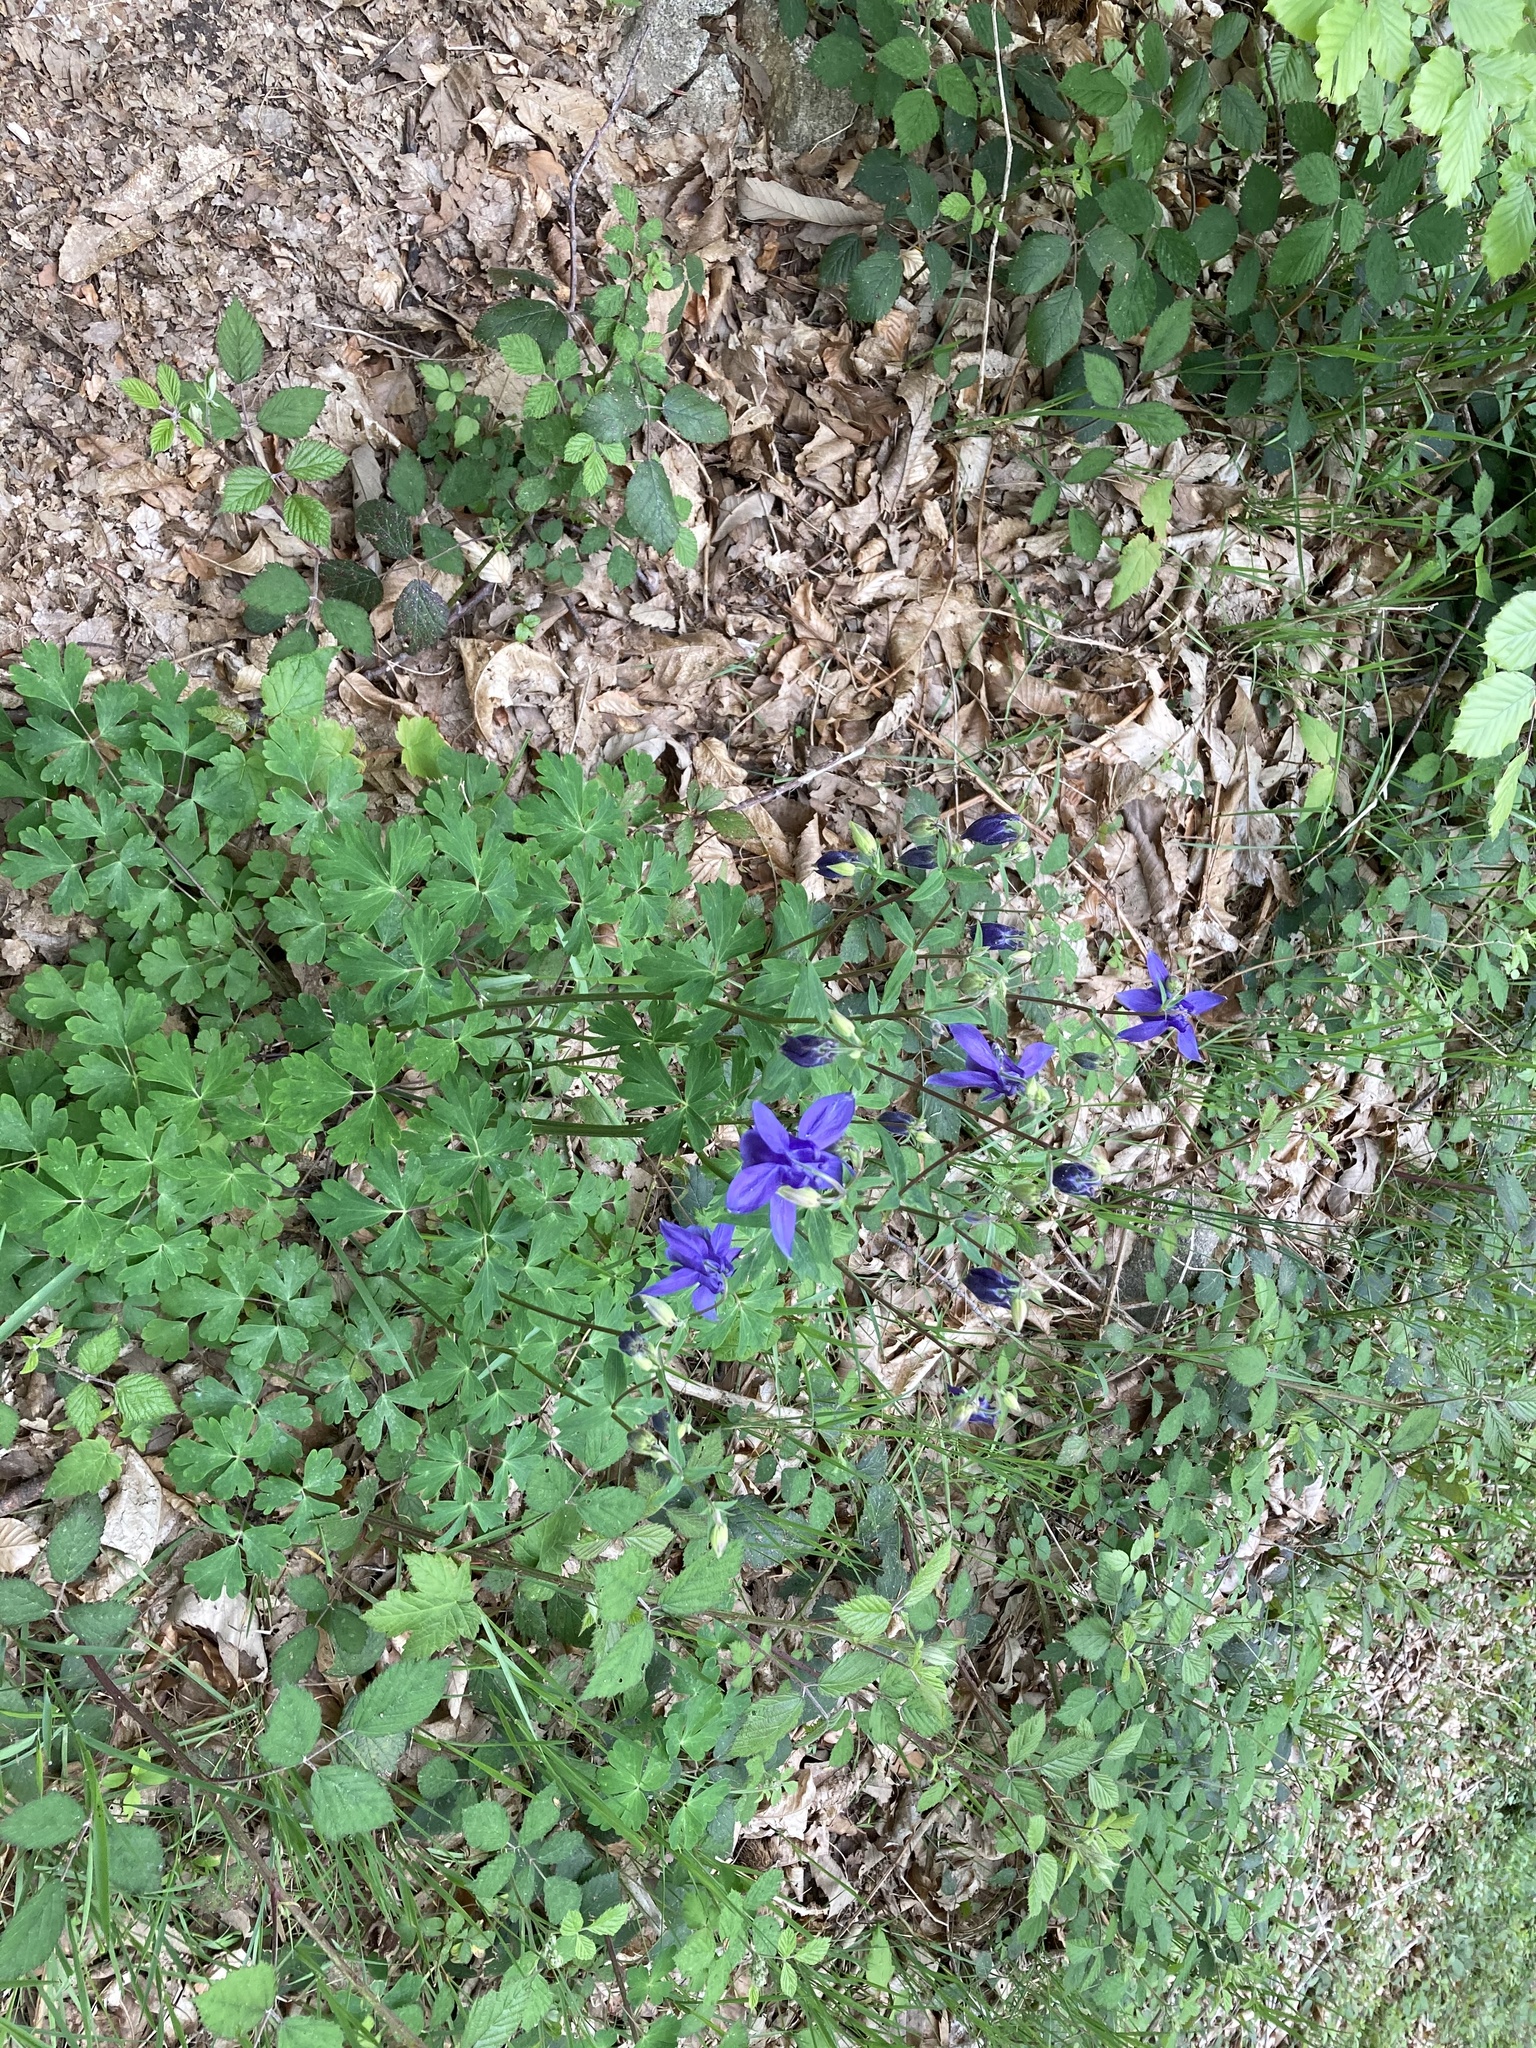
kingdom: Plantae
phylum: Tracheophyta
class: Magnoliopsida
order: Ranunculales
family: Ranunculaceae
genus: Aquilegia
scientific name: Aquilegia vulgaris
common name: Columbine
